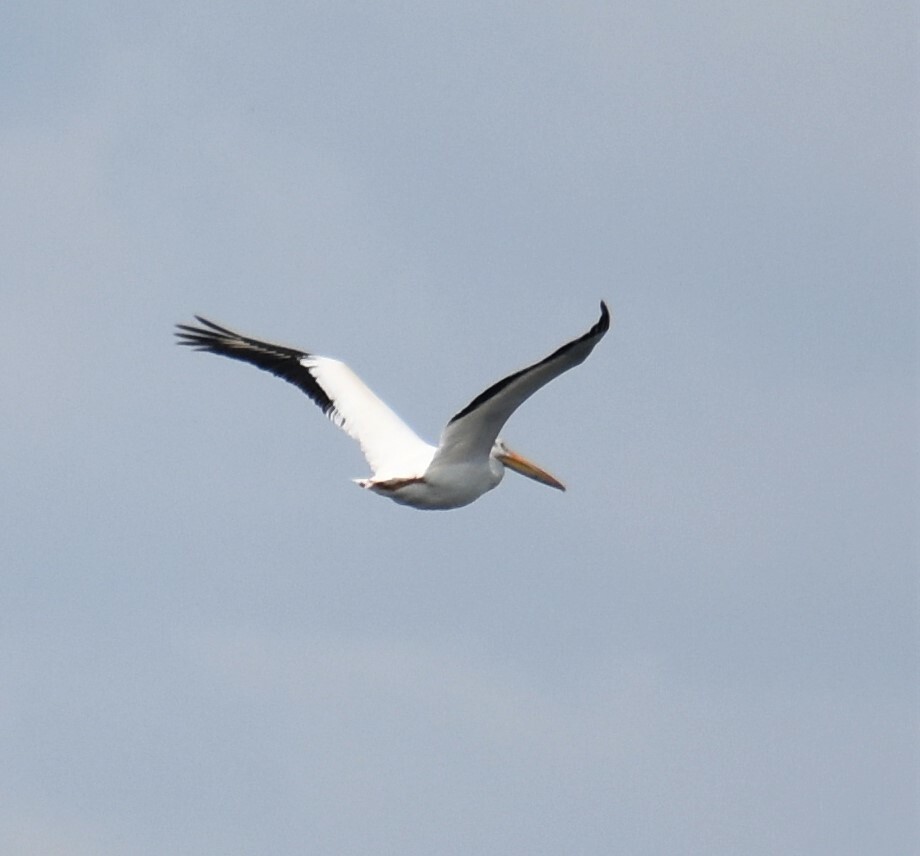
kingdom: Animalia
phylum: Chordata
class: Aves
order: Pelecaniformes
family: Pelecanidae
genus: Pelecanus
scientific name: Pelecanus erythrorhynchos
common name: American white pelican
